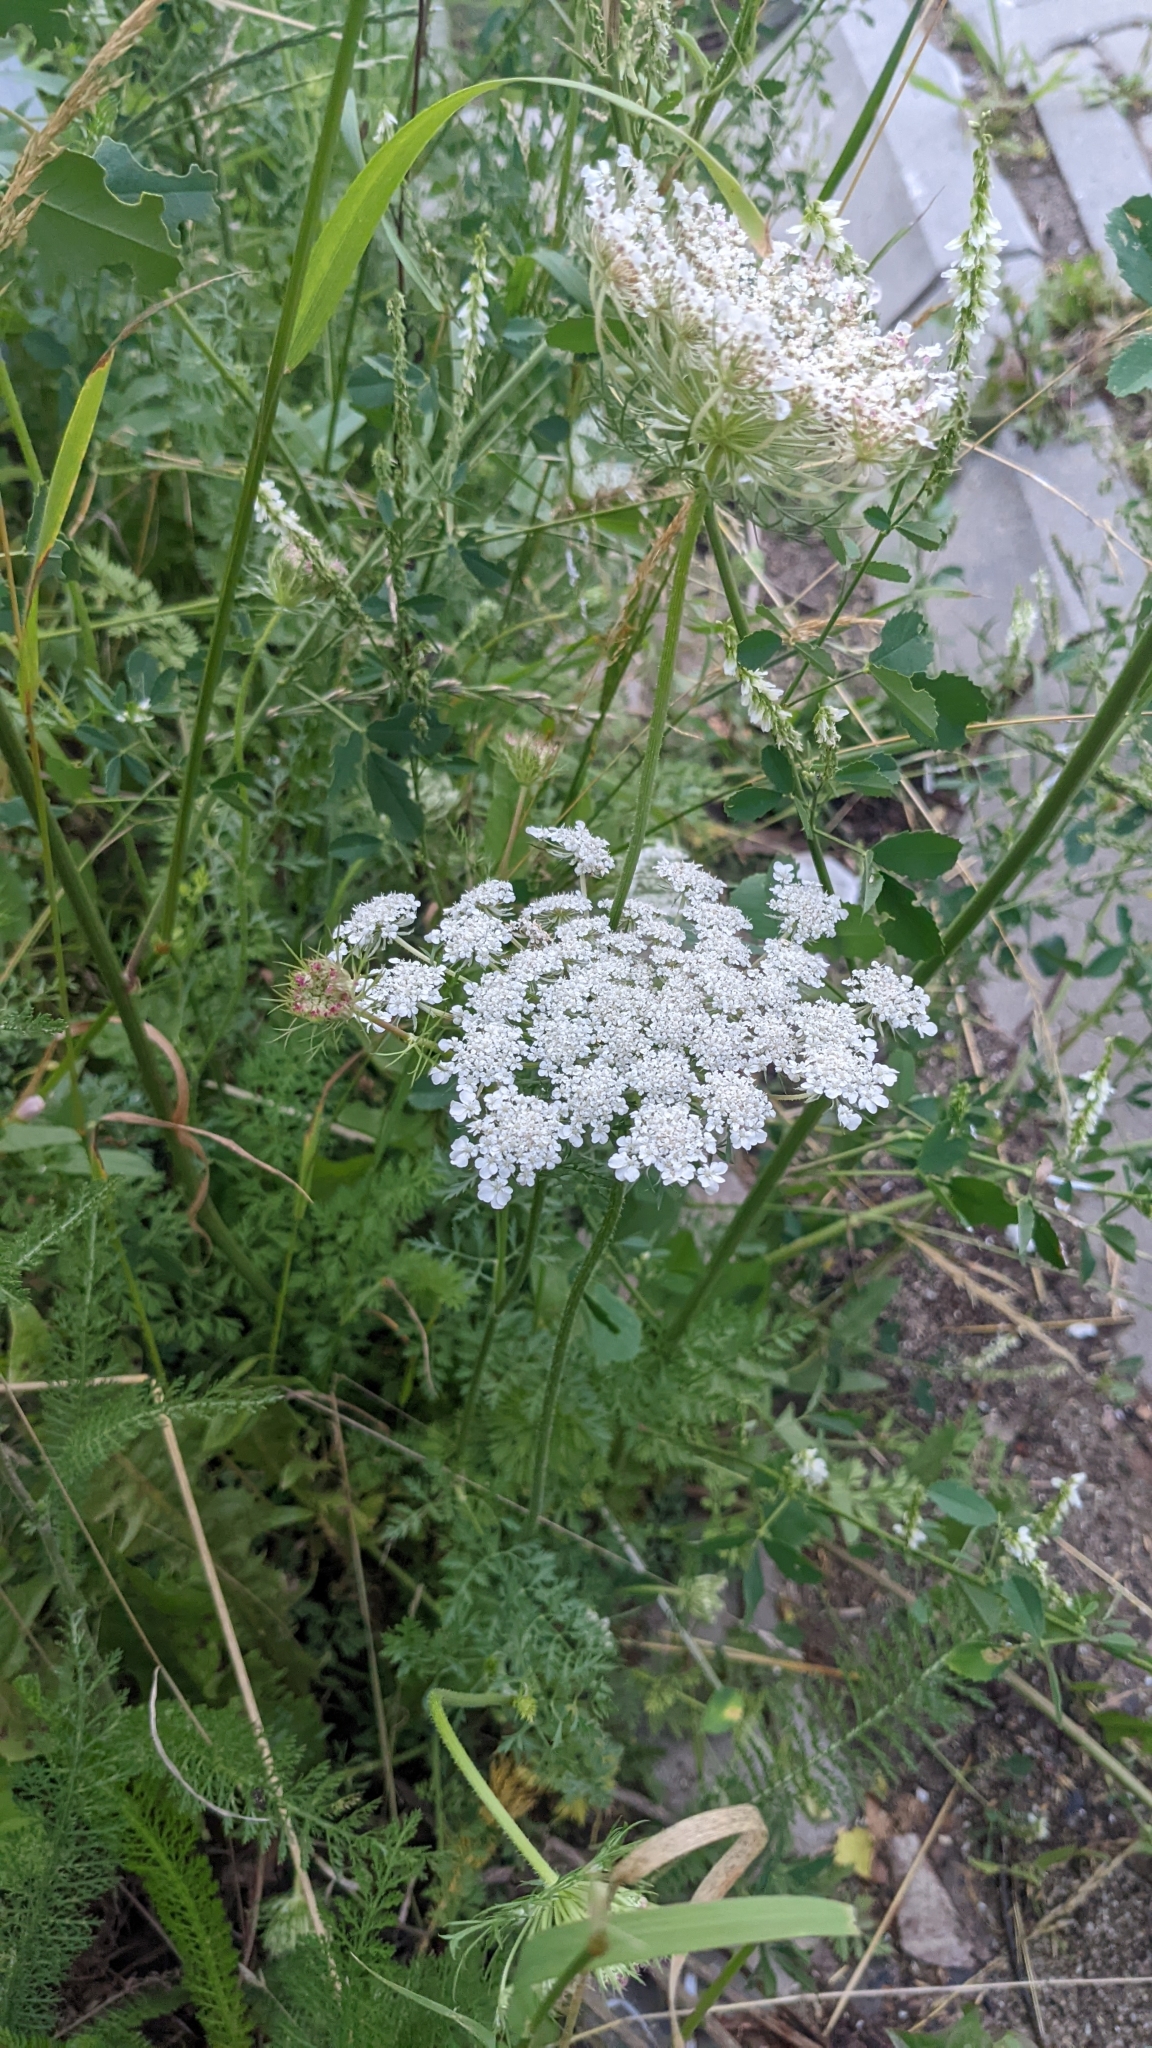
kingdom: Plantae
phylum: Tracheophyta
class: Magnoliopsida
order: Apiales
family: Apiaceae
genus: Daucus
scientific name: Daucus carota
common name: Wild carrot
